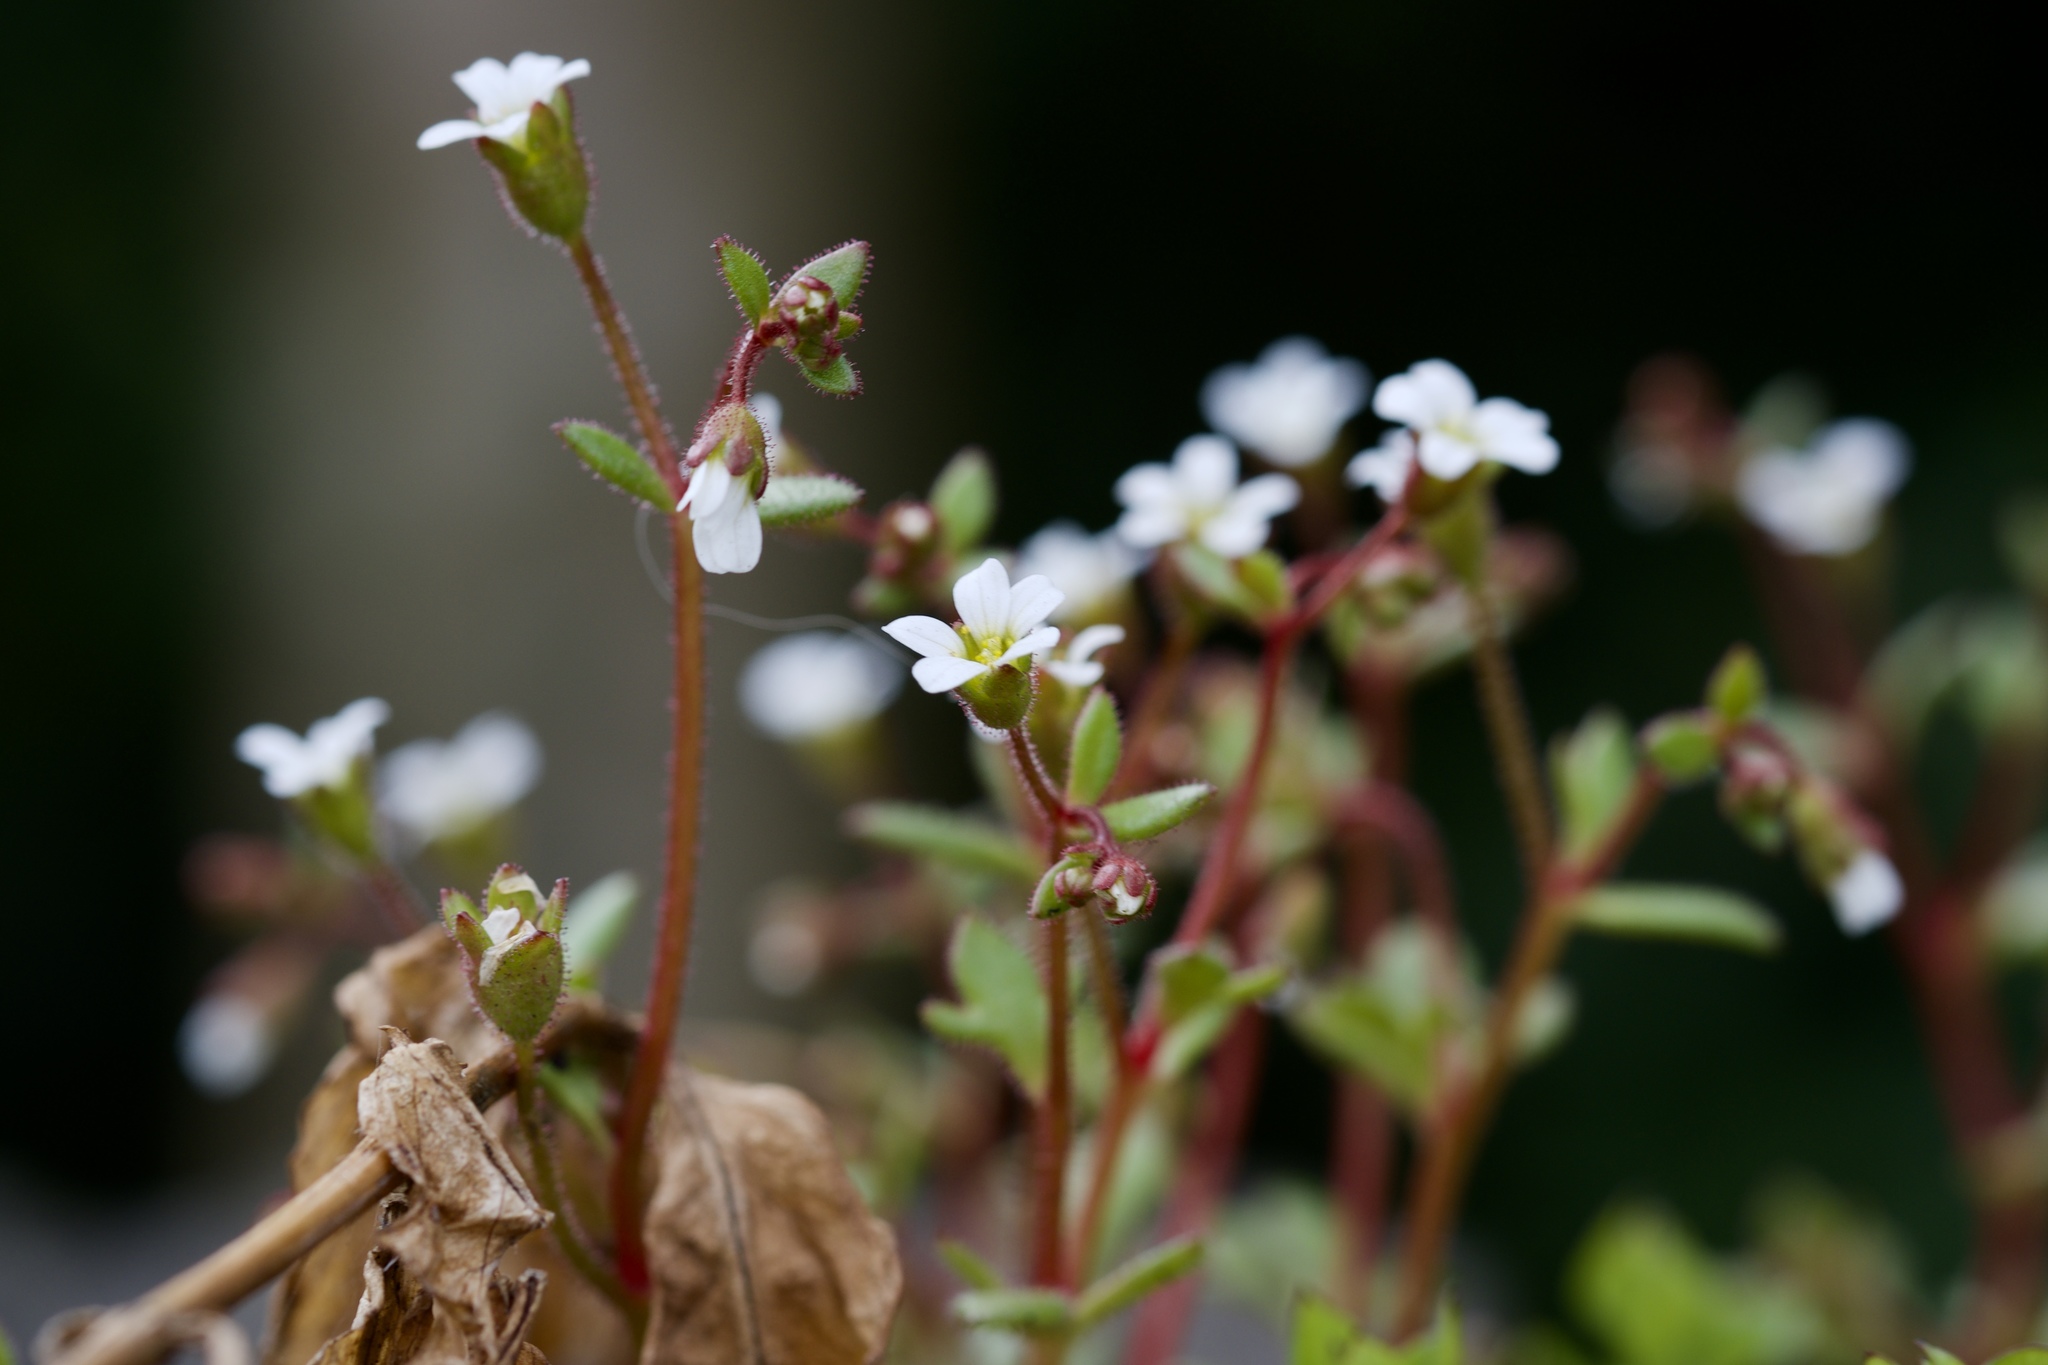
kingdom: Plantae
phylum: Tracheophyta
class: Magnoliopsida
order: Saxifragales
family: Saxifragaceae
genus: Saxifraga
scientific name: Saxifraga tridactylites
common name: Rue-leaved saxifrage
